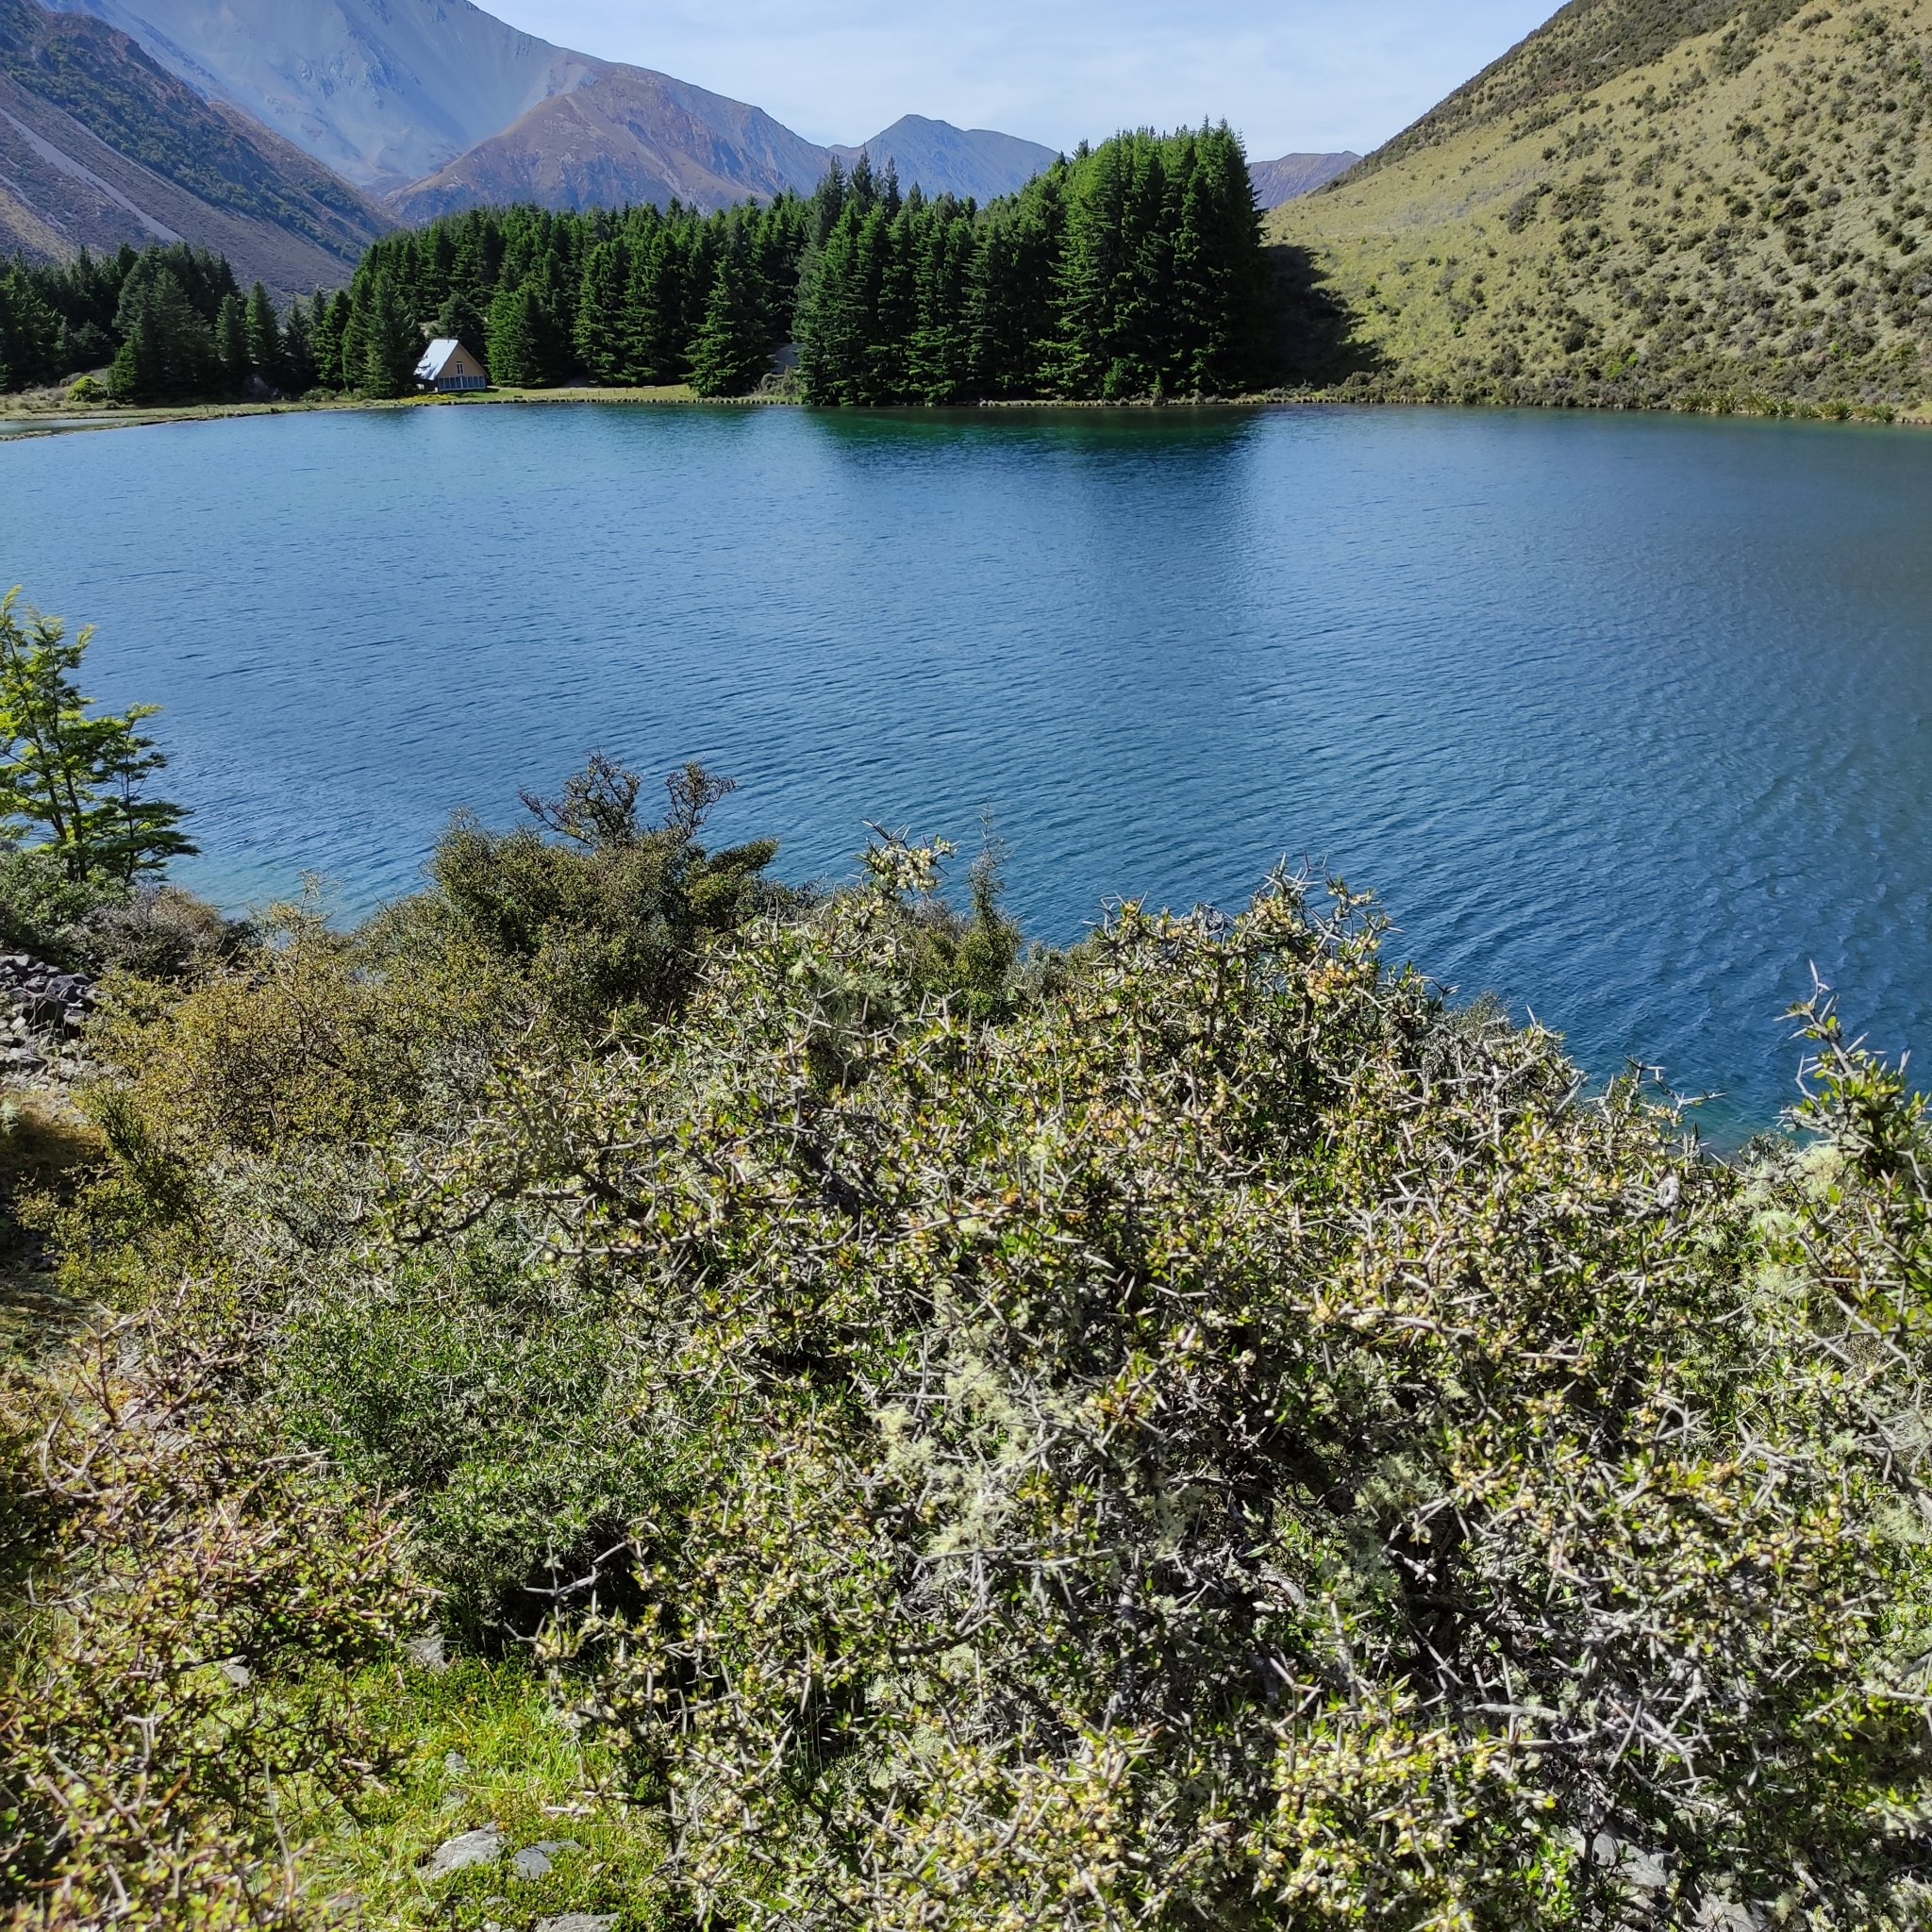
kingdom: Plantae
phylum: Tracheophyta
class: Magnoliopsida
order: Rosales
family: Rhamnaceae
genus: Discaria
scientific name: Discaria toumatou
